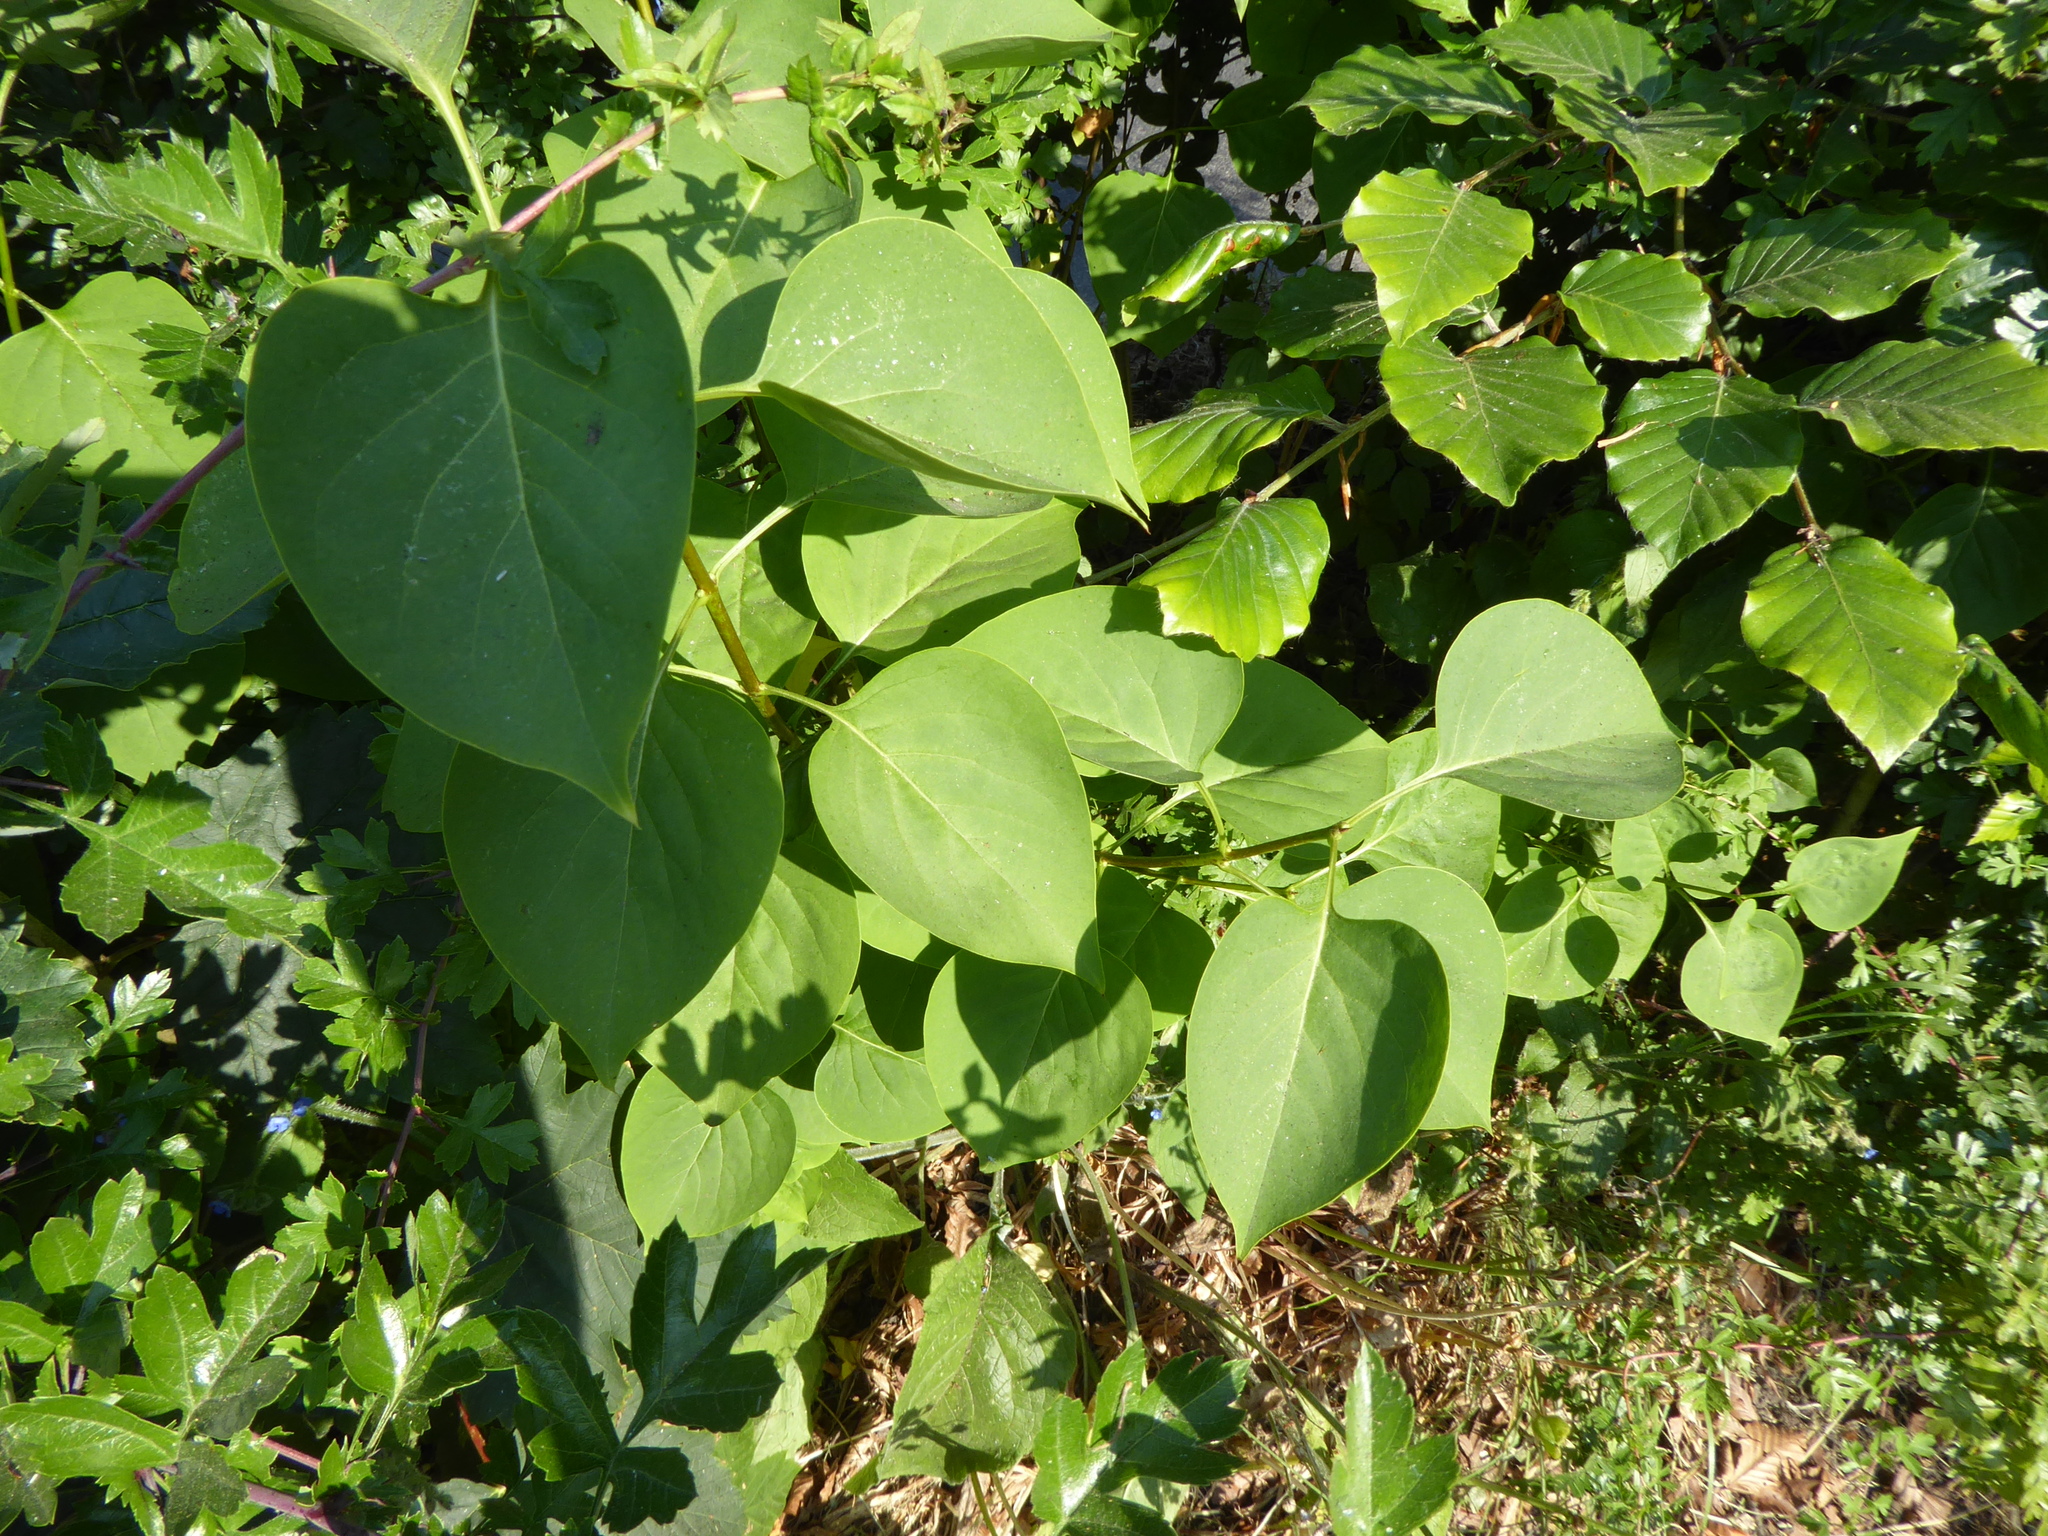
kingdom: Plantae
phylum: Tracheophyta
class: Magnoliopsida
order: Lamiales
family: Oleaceae
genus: Syringa
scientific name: Syringa vulgaris
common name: Common lilac
